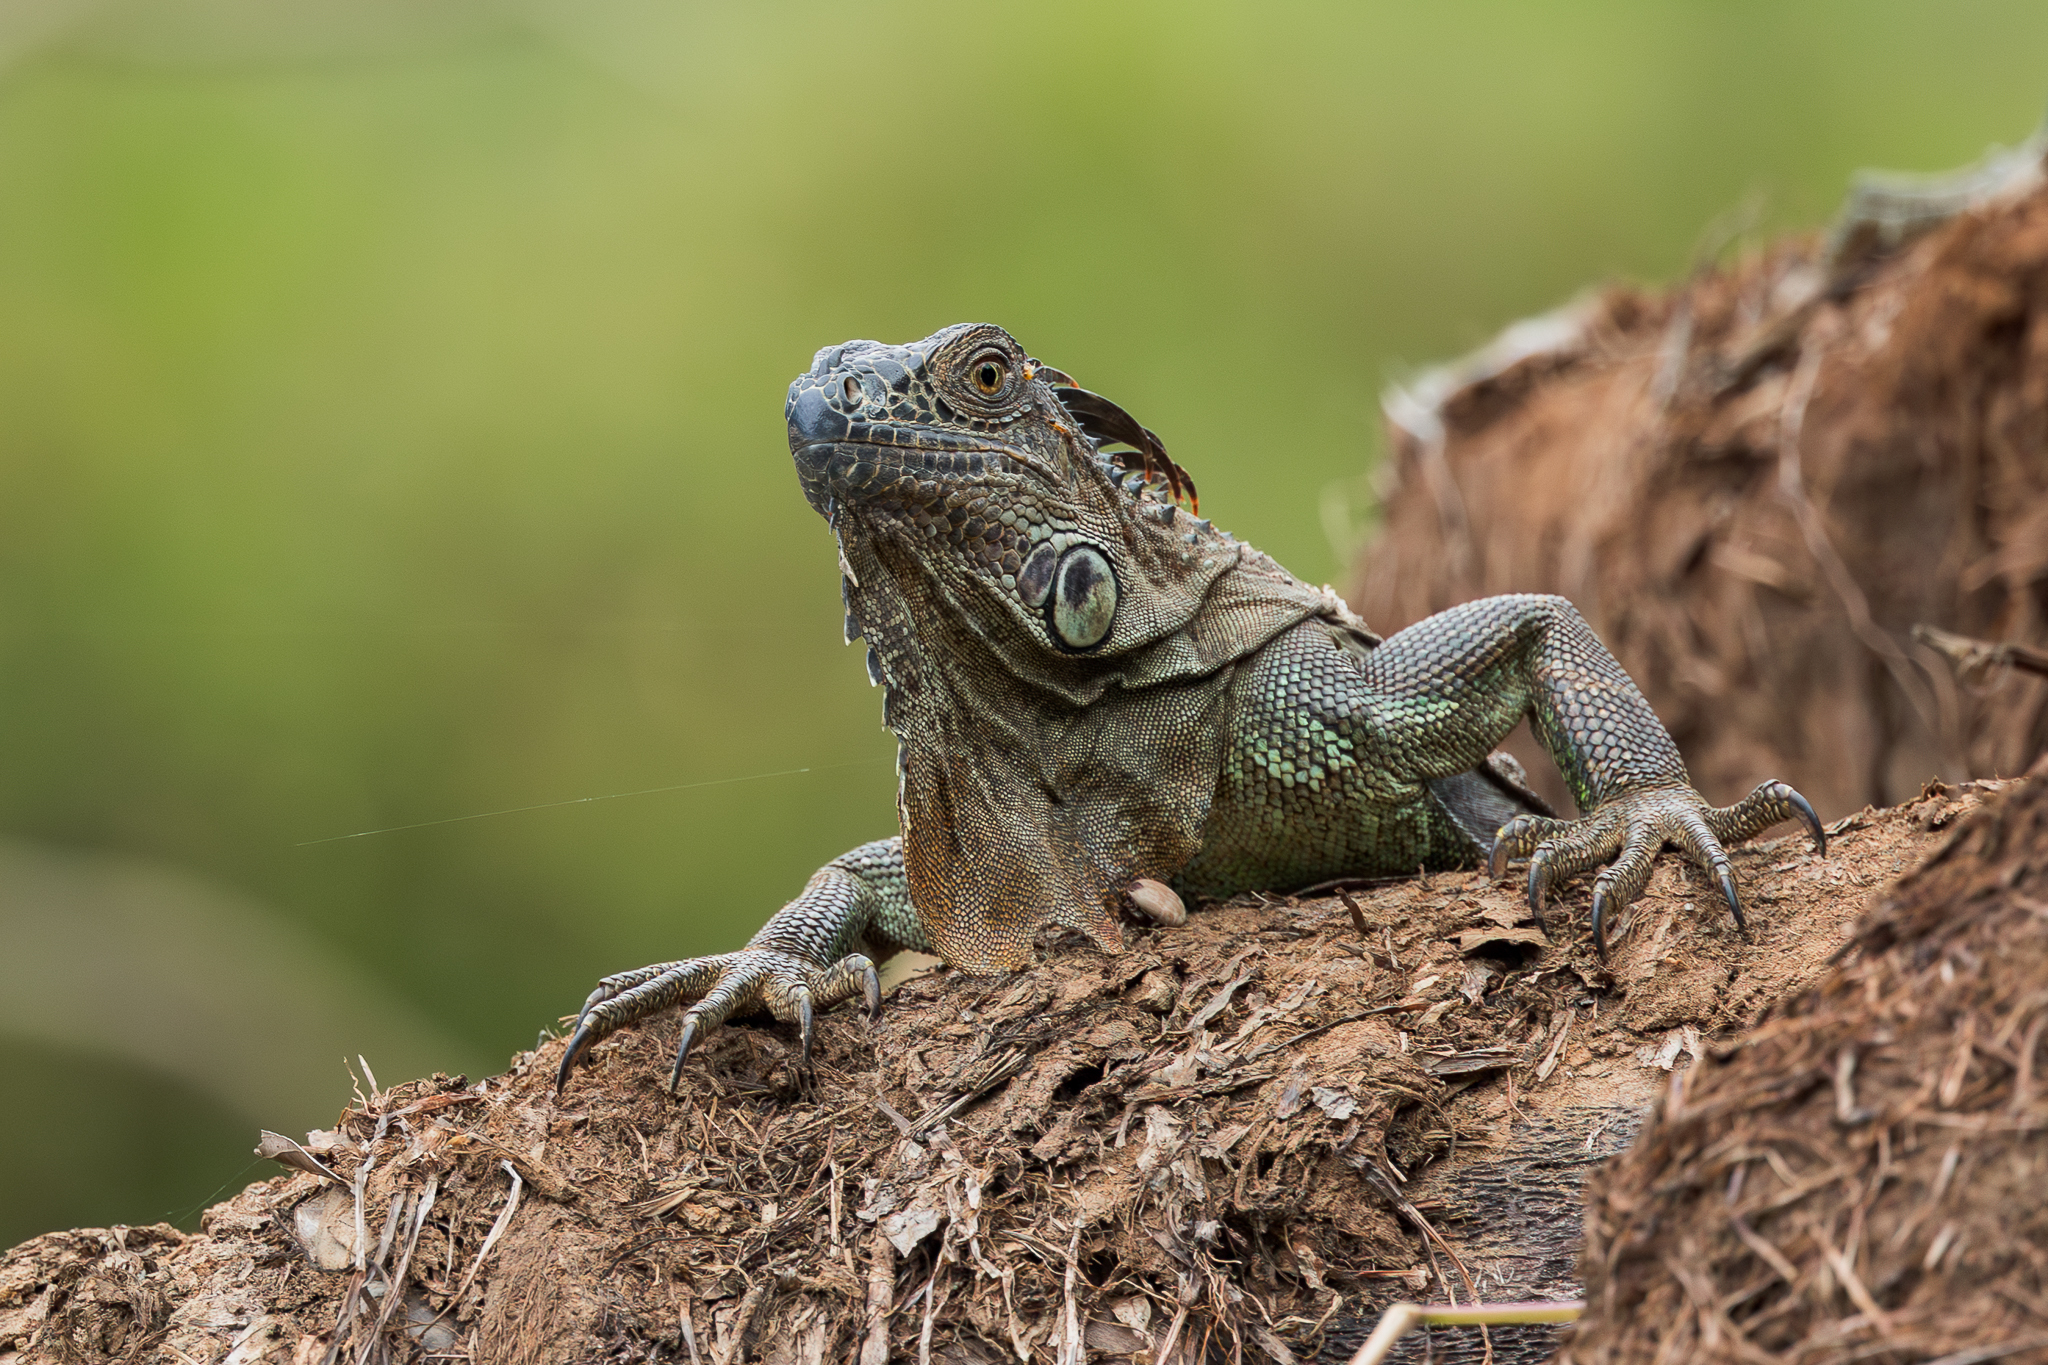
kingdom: Animalia
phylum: Chordata
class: Squamata
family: Iguanidae
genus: Iguana
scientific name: Iguana iguana
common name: Green iguana
